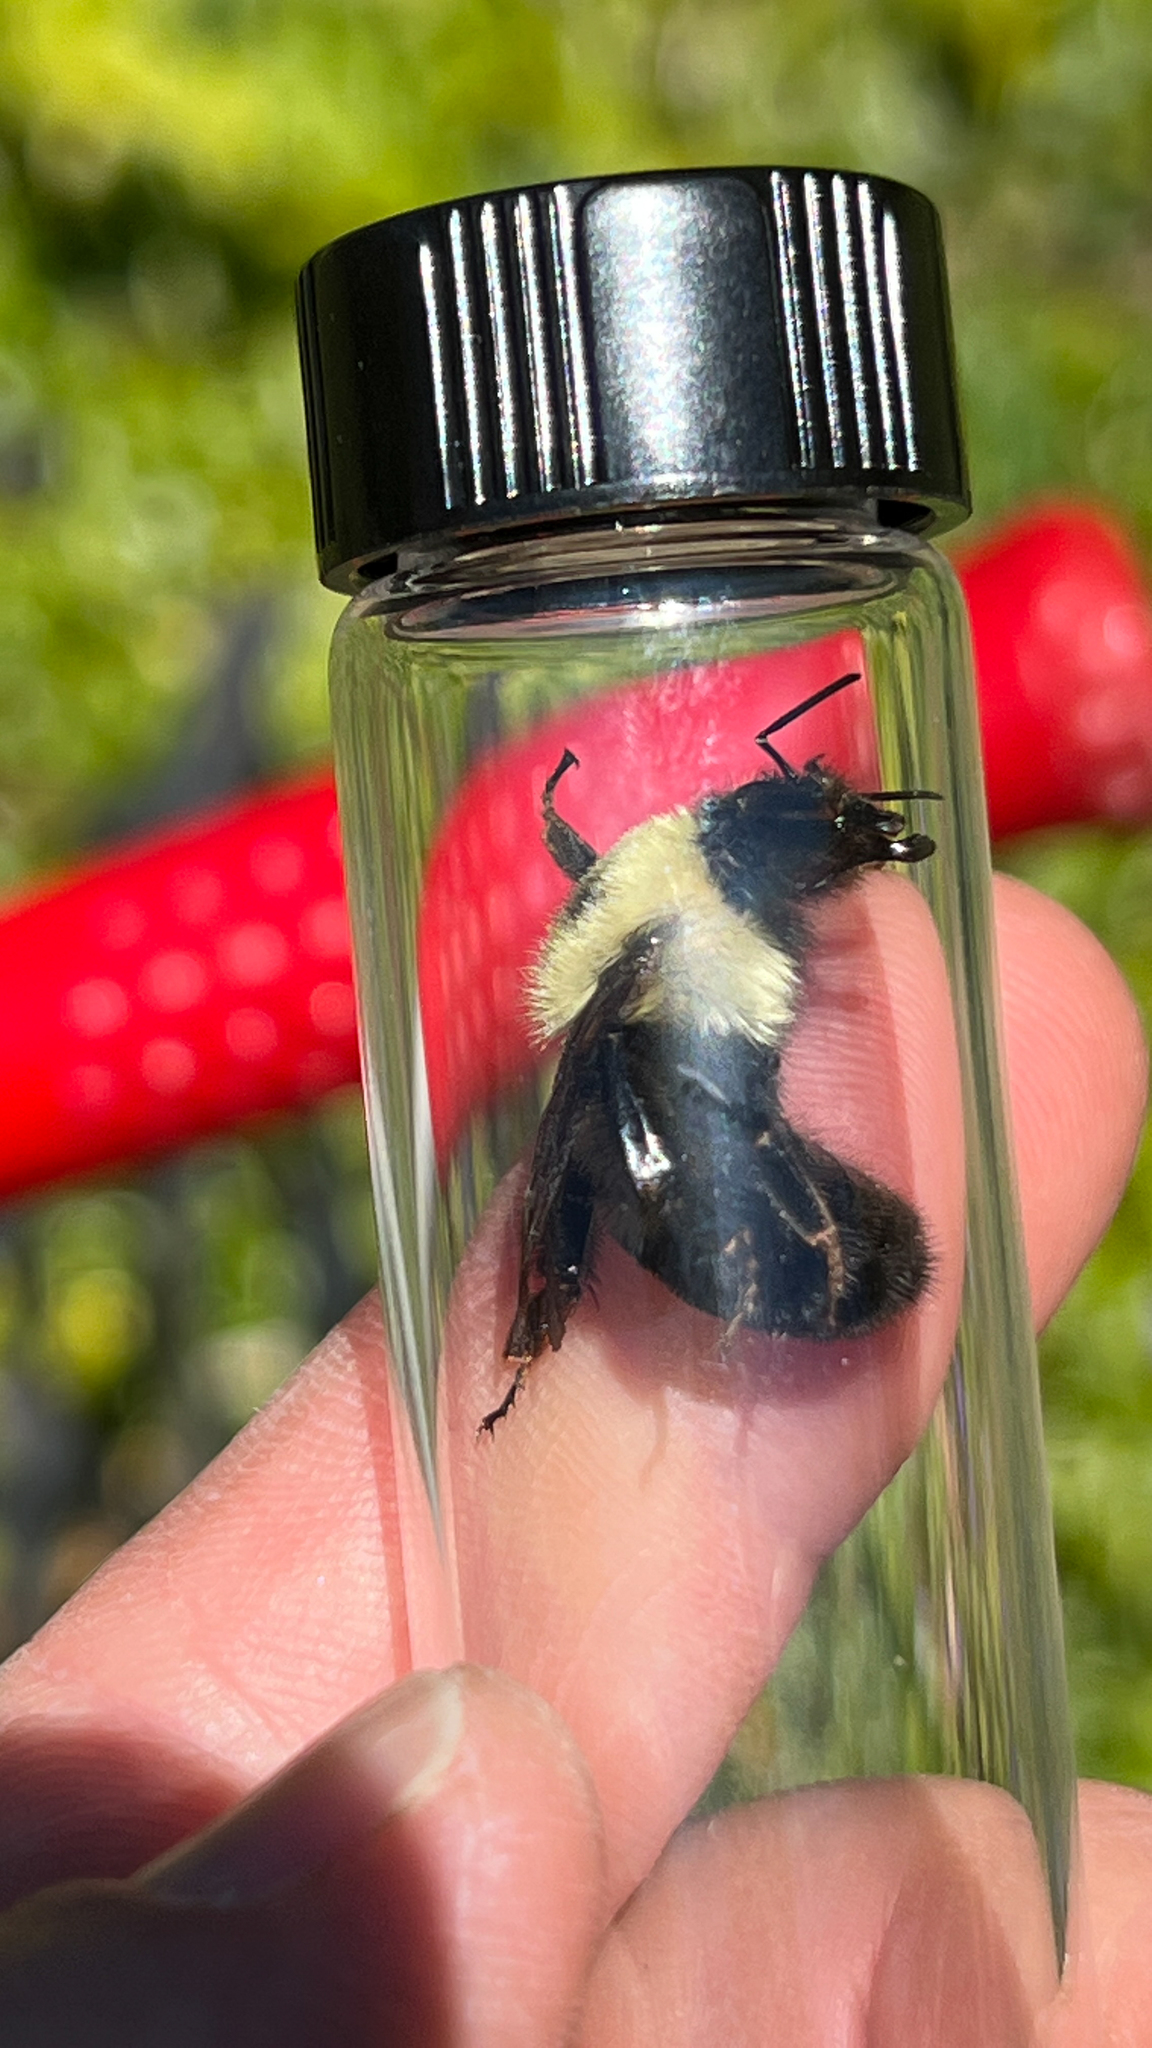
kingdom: Animalia
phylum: Arthropoda
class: Insecta
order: Hymenoptera
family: Apidae
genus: Bombus
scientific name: Bombus bimaculatus
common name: Two-spotted bumble bee
